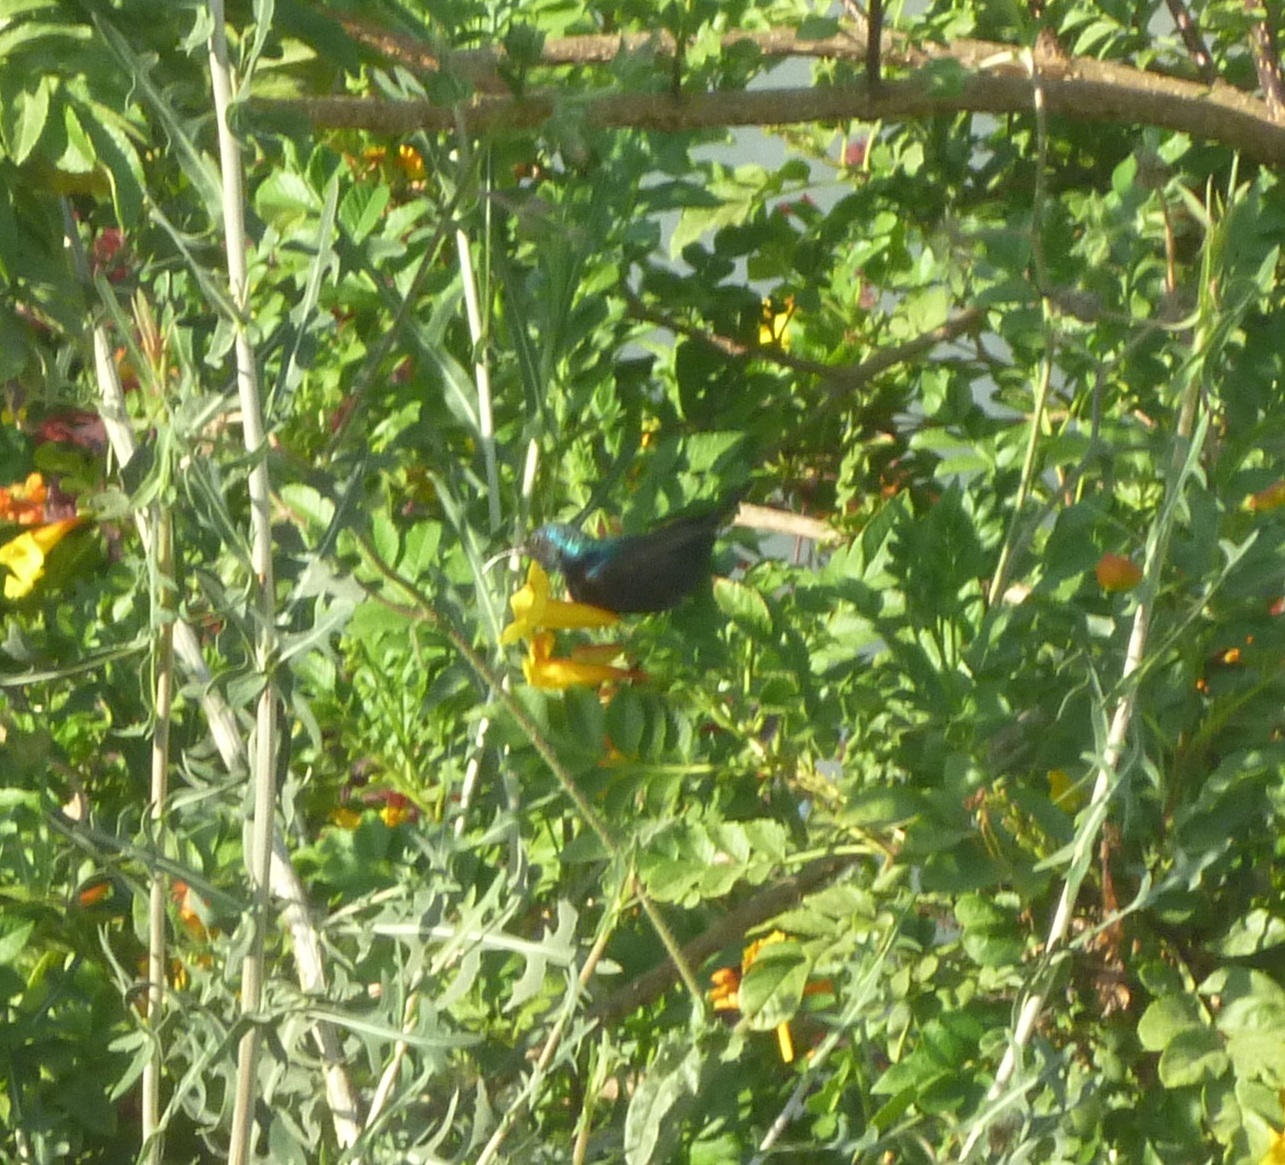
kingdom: Animalia
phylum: Chordata
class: Aves
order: Passeriformes
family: Nectariniidae
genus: Cinnyris
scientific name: Cinnyris osea
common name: Palestine sunbird
